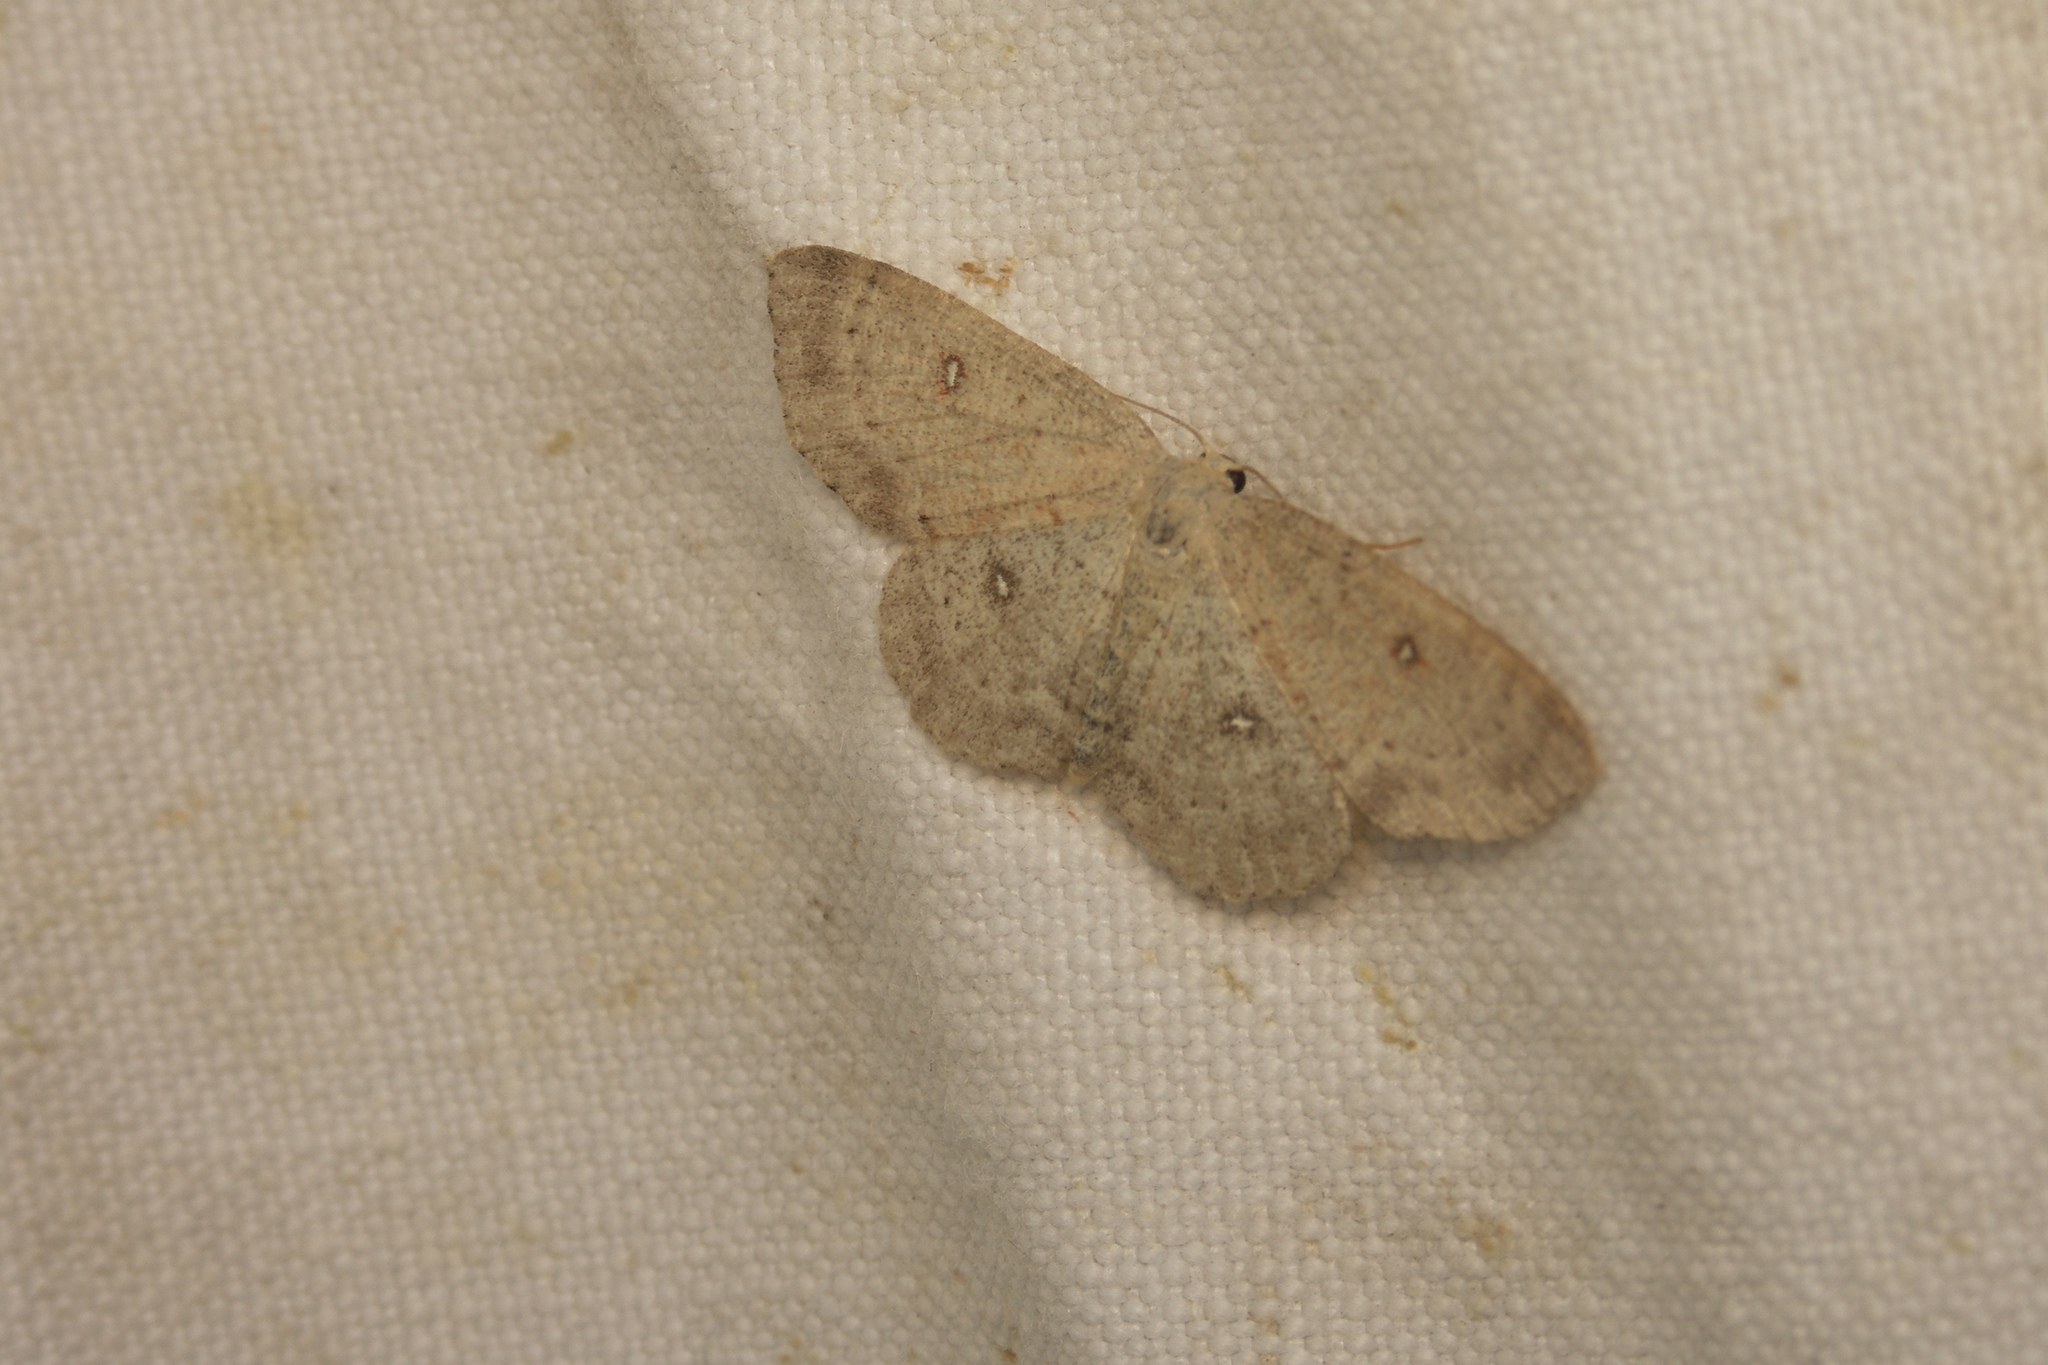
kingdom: Animalia
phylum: Arthropoda
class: Insecta
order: Lepidoptera
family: Geometridae
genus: Cyclophora
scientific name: Cyclophora albipunctata
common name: Birch mocha
